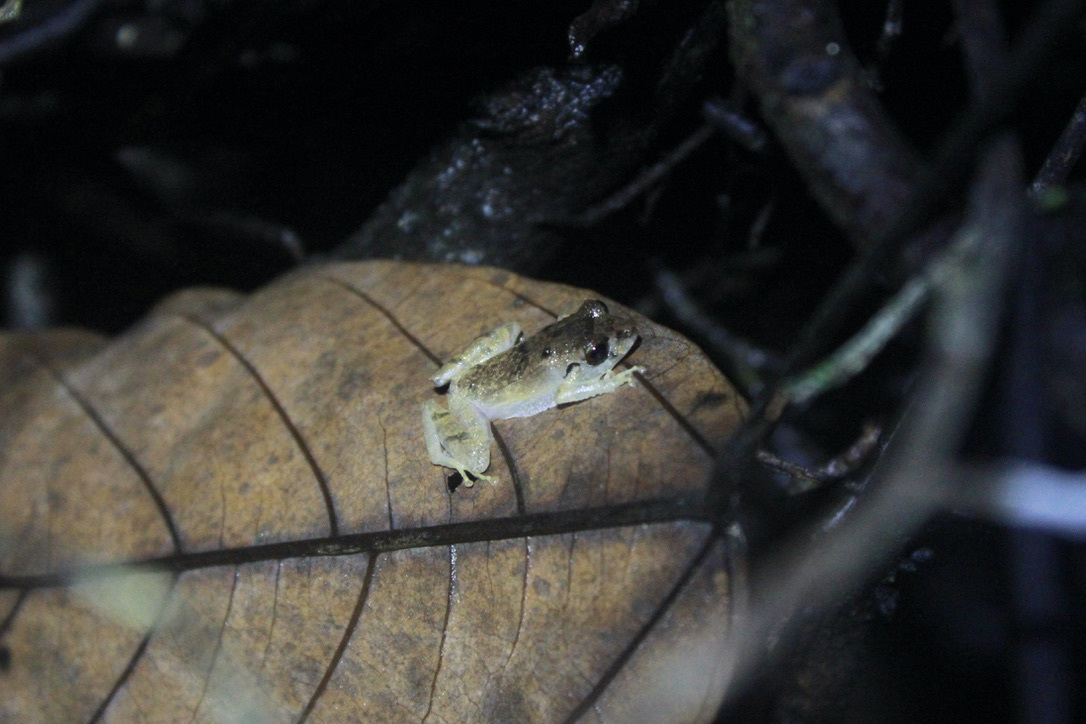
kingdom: Animalia
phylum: Chordata
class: Amphibia
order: Anura
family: Craugastoridae
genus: Pristimantis
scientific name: Pristimantis urichi
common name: Lesser antilles robber frog
